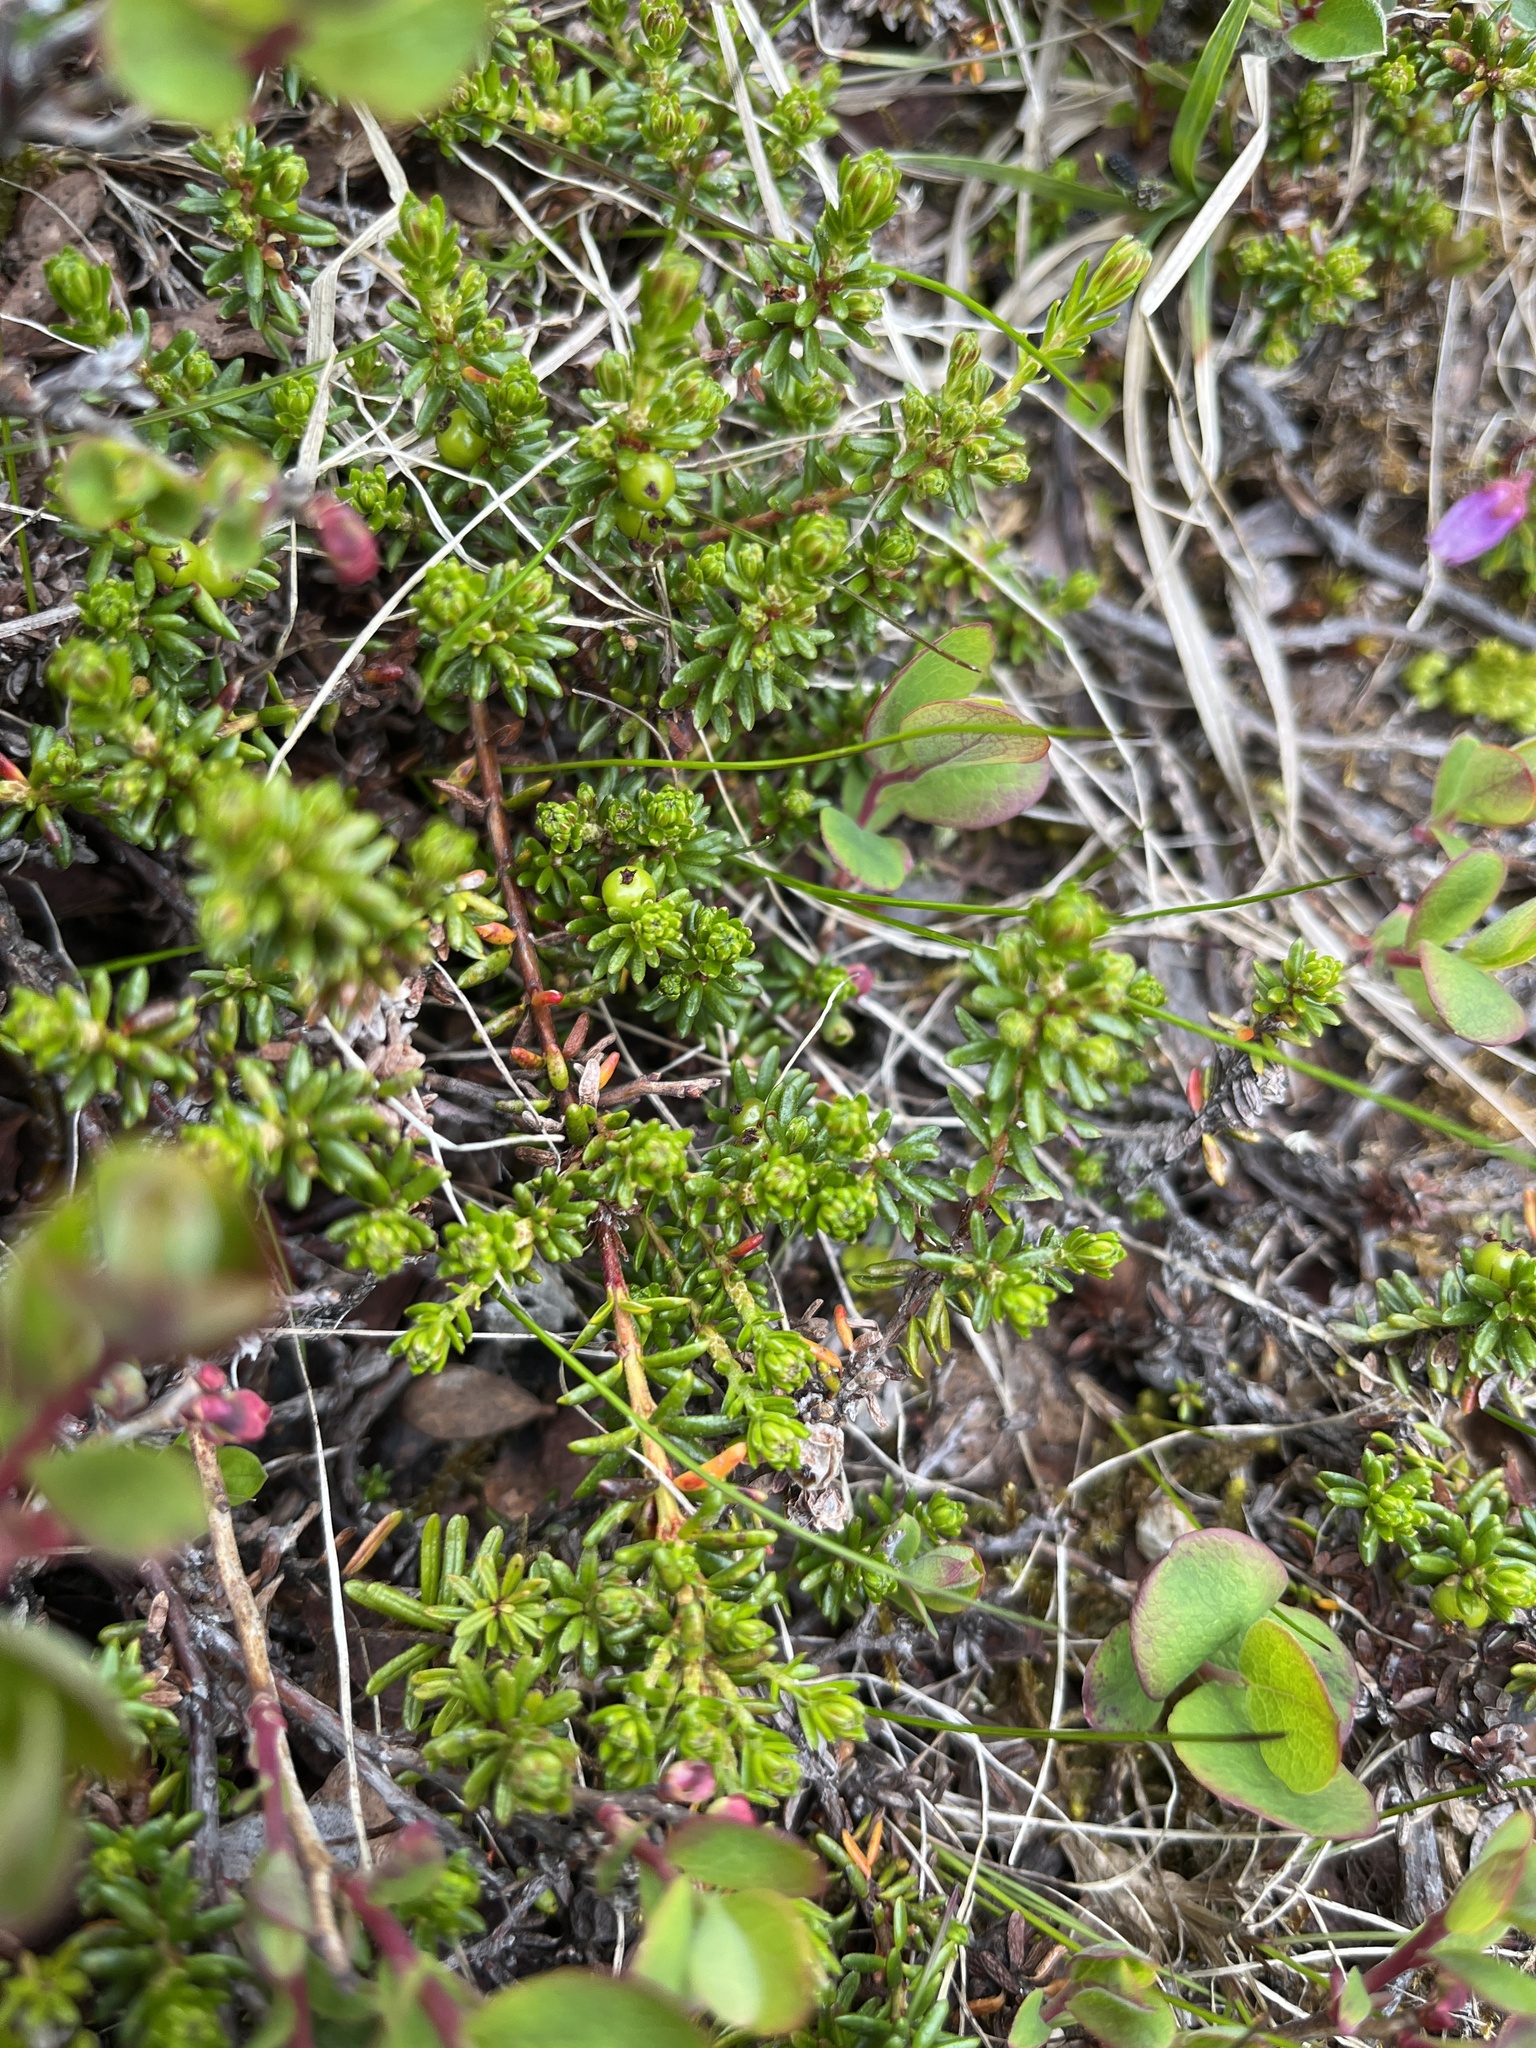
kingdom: Plantae
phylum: Tracheophyta
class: Magnoliopsida
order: Ericales
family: Ericaceae
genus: Empetrum
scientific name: Empetrum hermaphroditum
